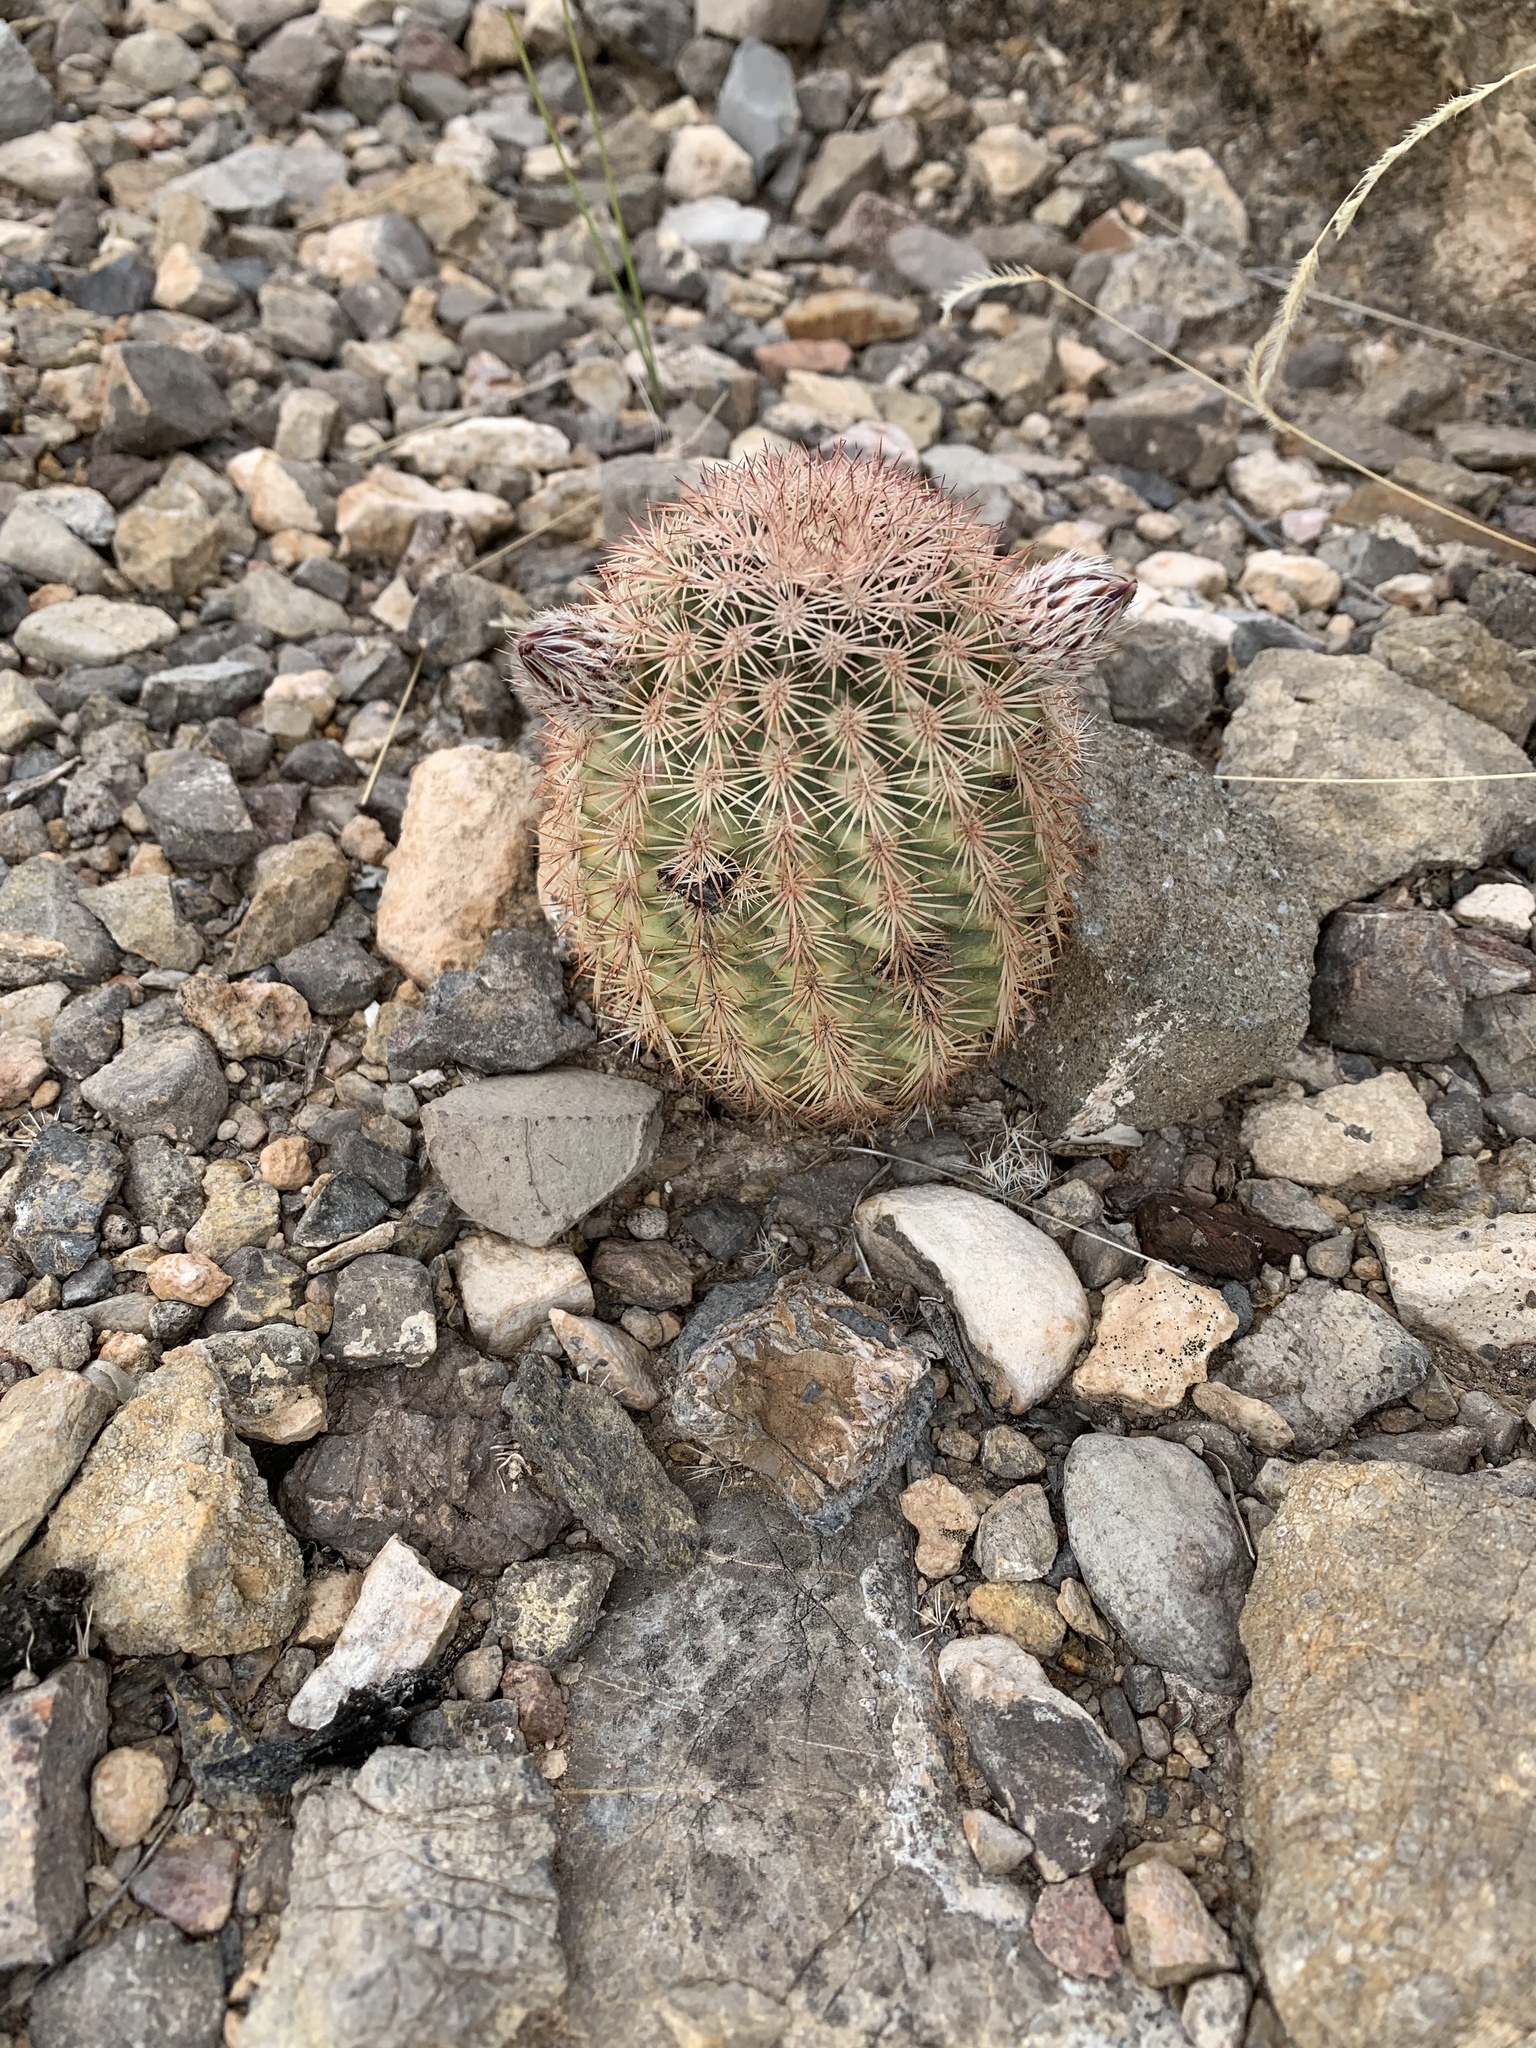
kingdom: Plantae
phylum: Tracheophyta
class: Magnoliopsida
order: Caryophyllales
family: Cactaceae
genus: Echinocereus
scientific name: Echinocereus dasyacanthus
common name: Spiny hedgehog cactus
